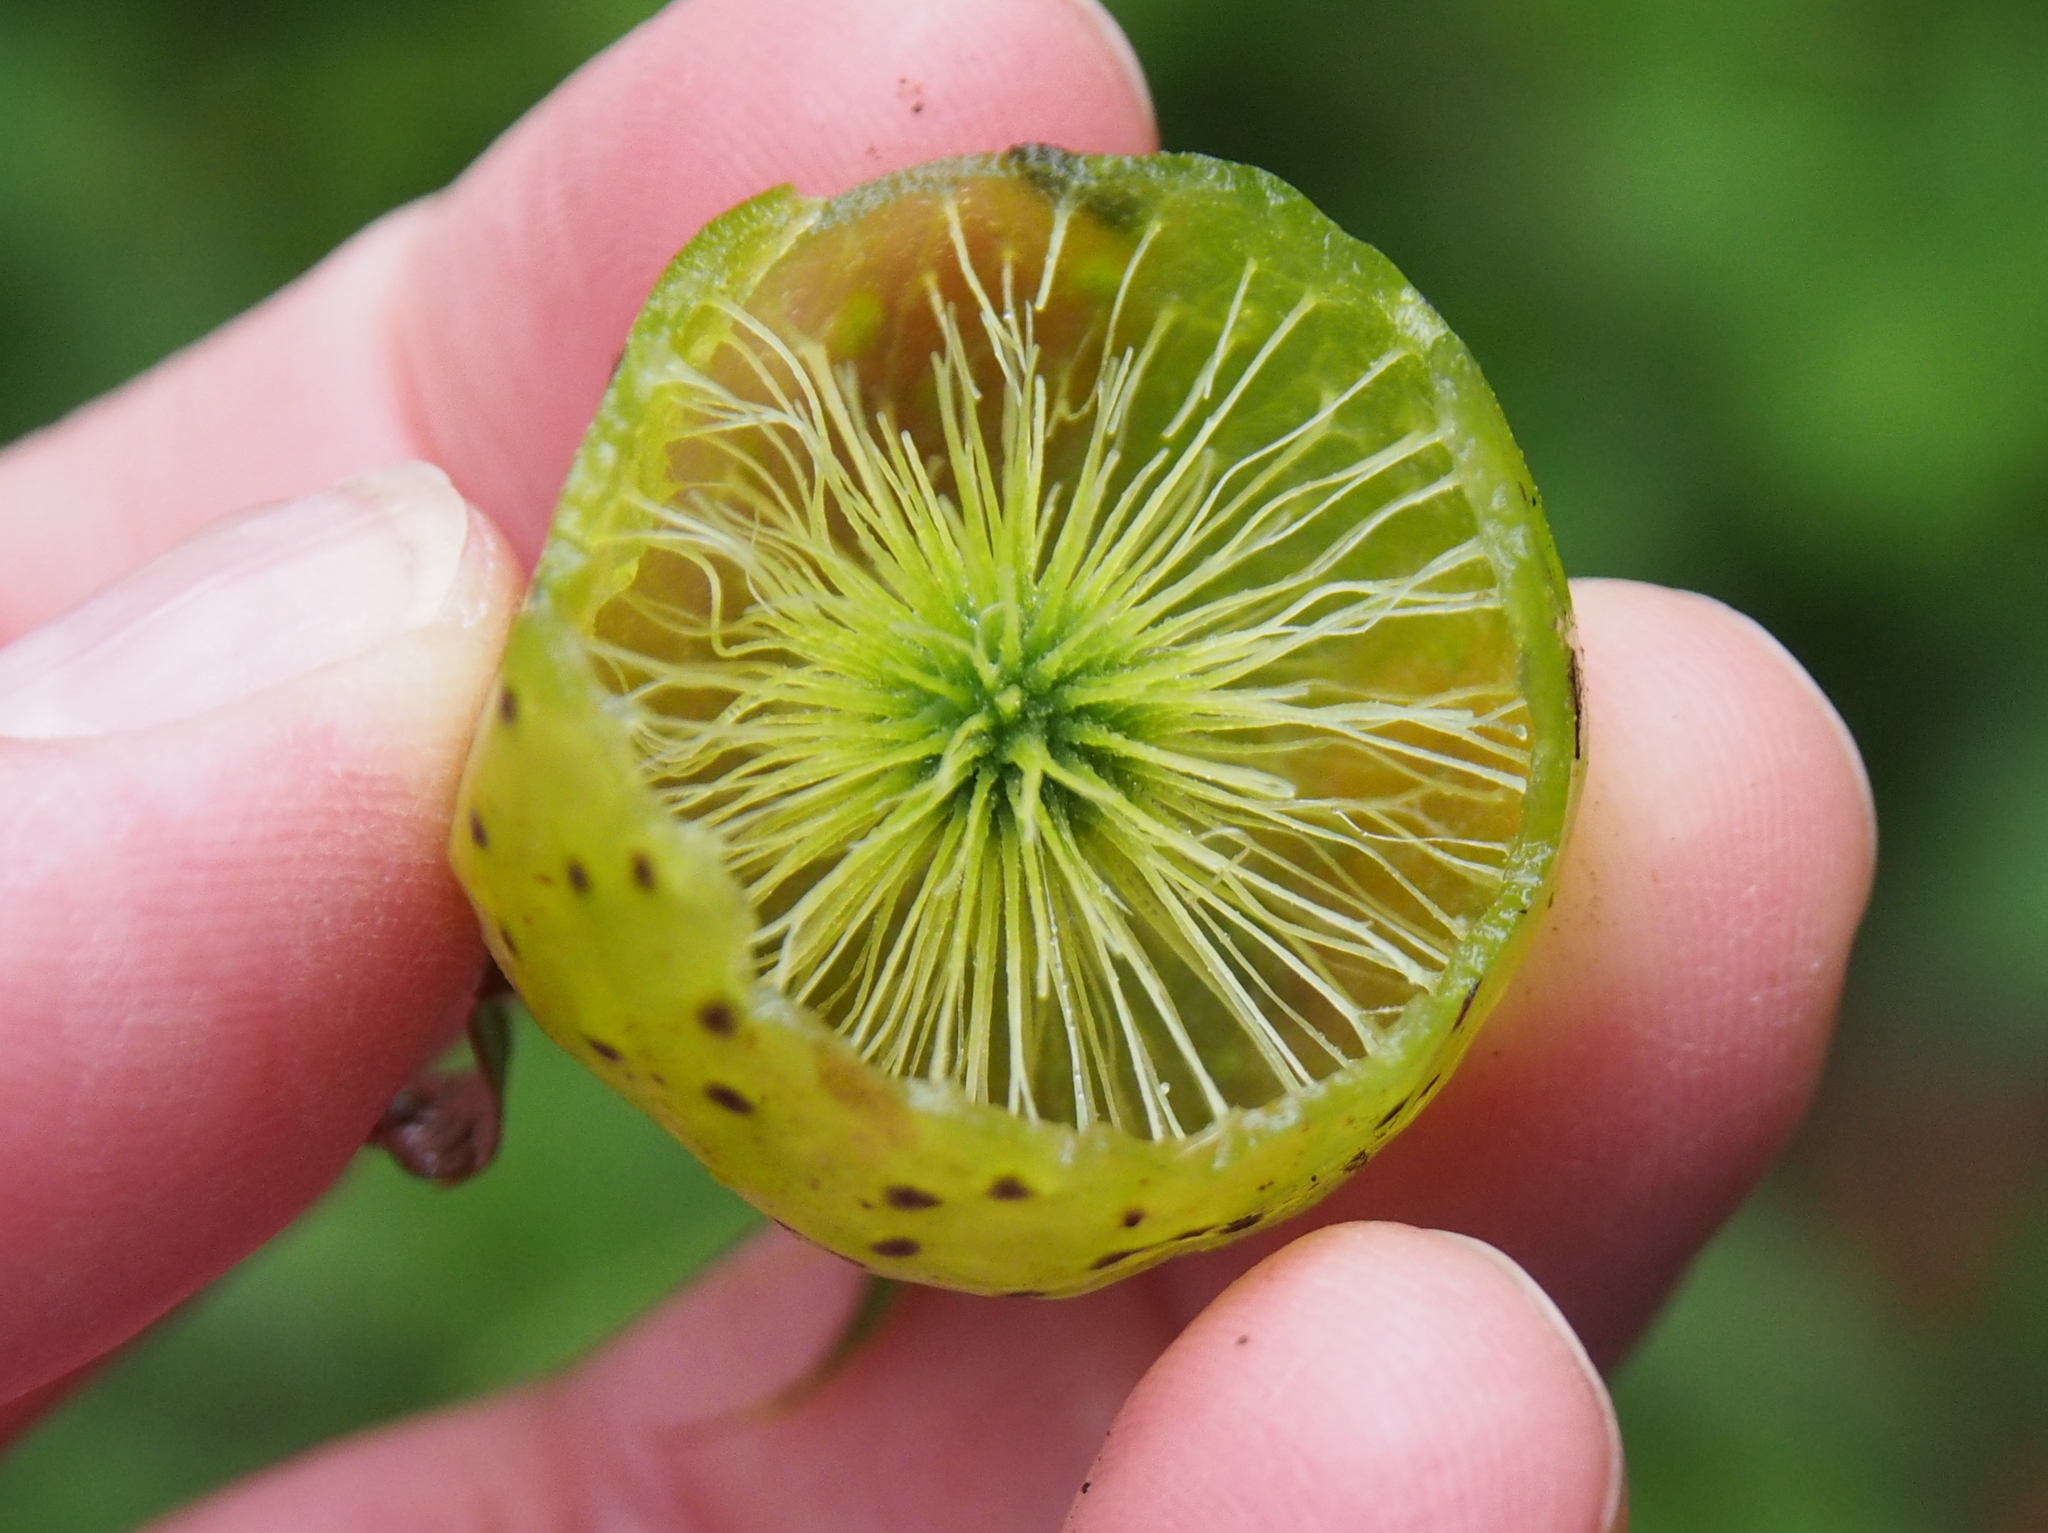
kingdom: Animalia
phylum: Arthropoda
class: Insecta
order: Hymenoptera
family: Cynipidae
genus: Amphibolips
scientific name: Amphibolips
